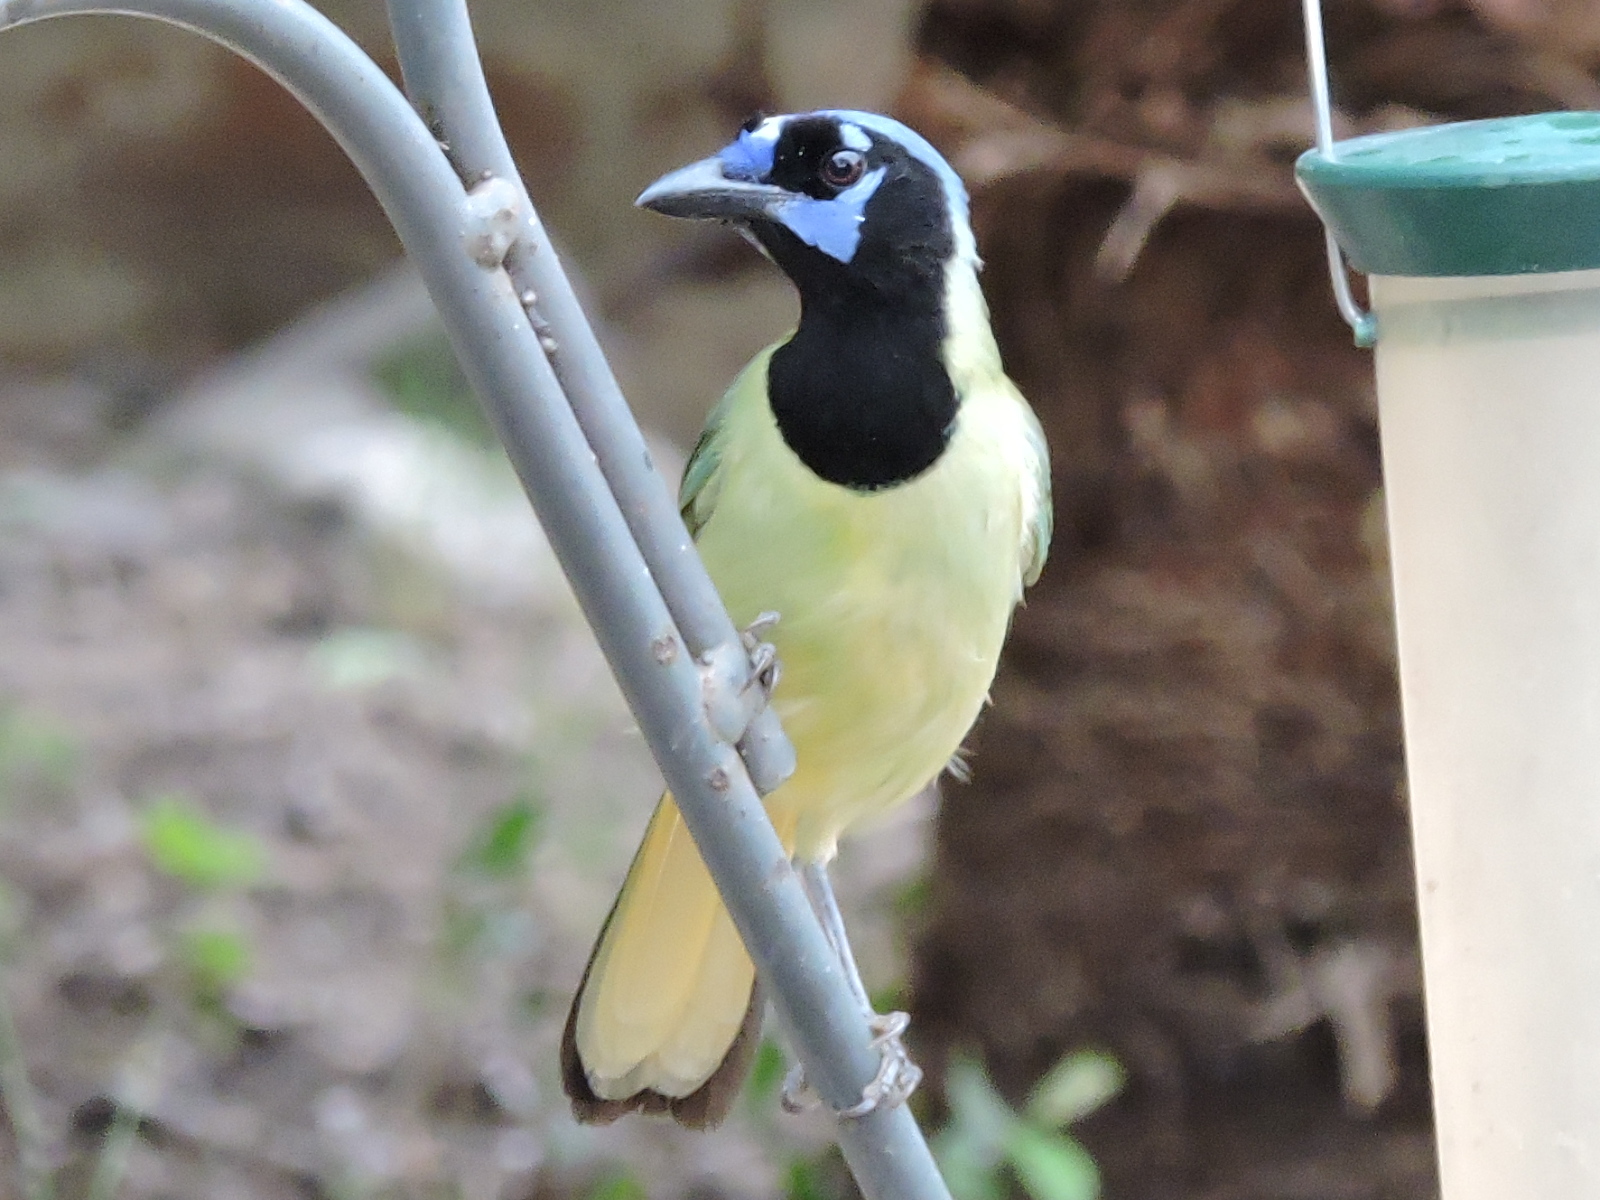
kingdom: Animalia
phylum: Chordata
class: Aves
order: Passeriformes
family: Corvidae
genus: Cyanocorax
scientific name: Cyanocorax yncas
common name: Green jay
